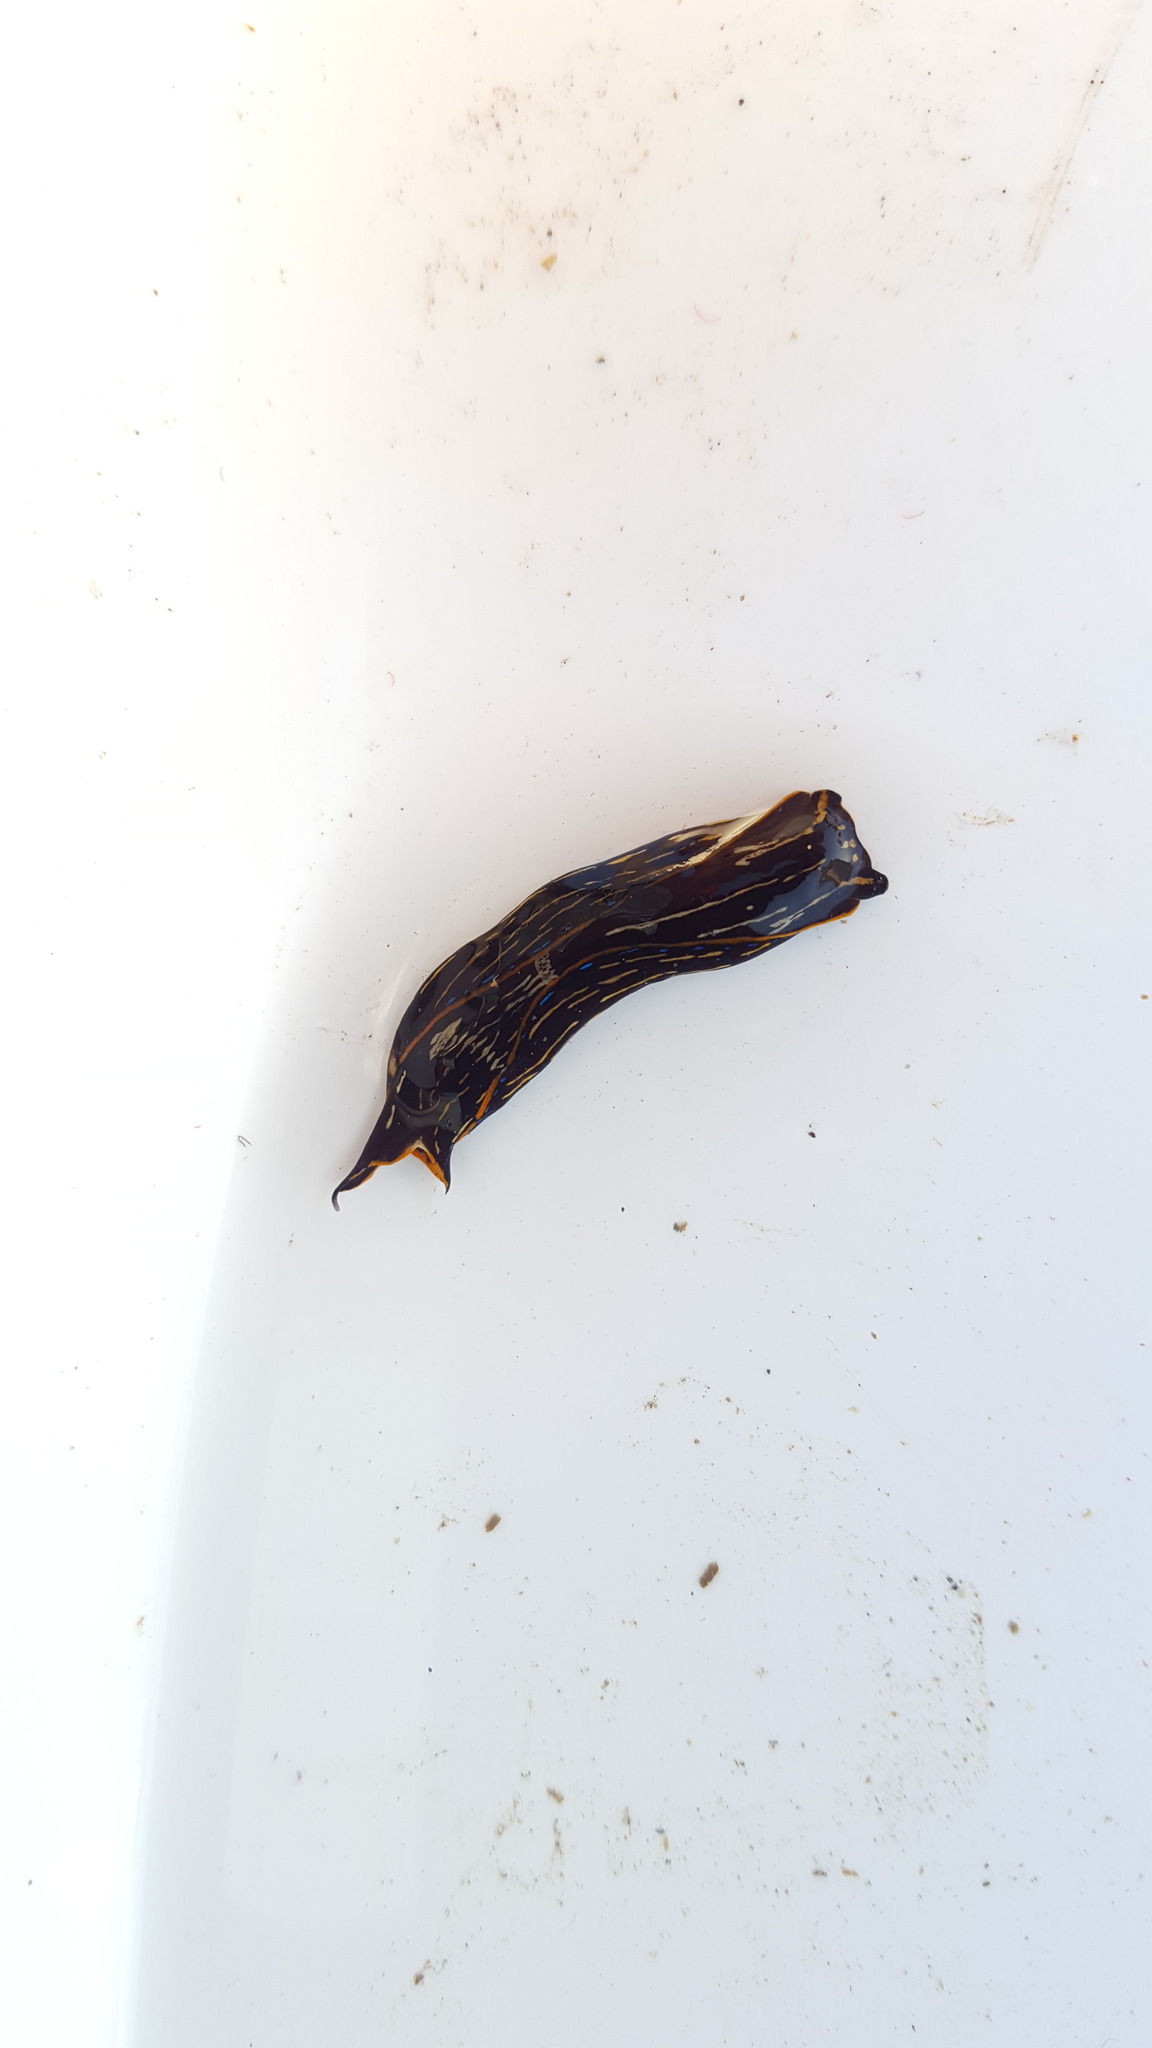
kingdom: Animalia
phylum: Mollusca
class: Gastropoda
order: Cephalaspidea
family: Aglajidae
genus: Navanax
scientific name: Navanax inermis
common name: California aglaja
